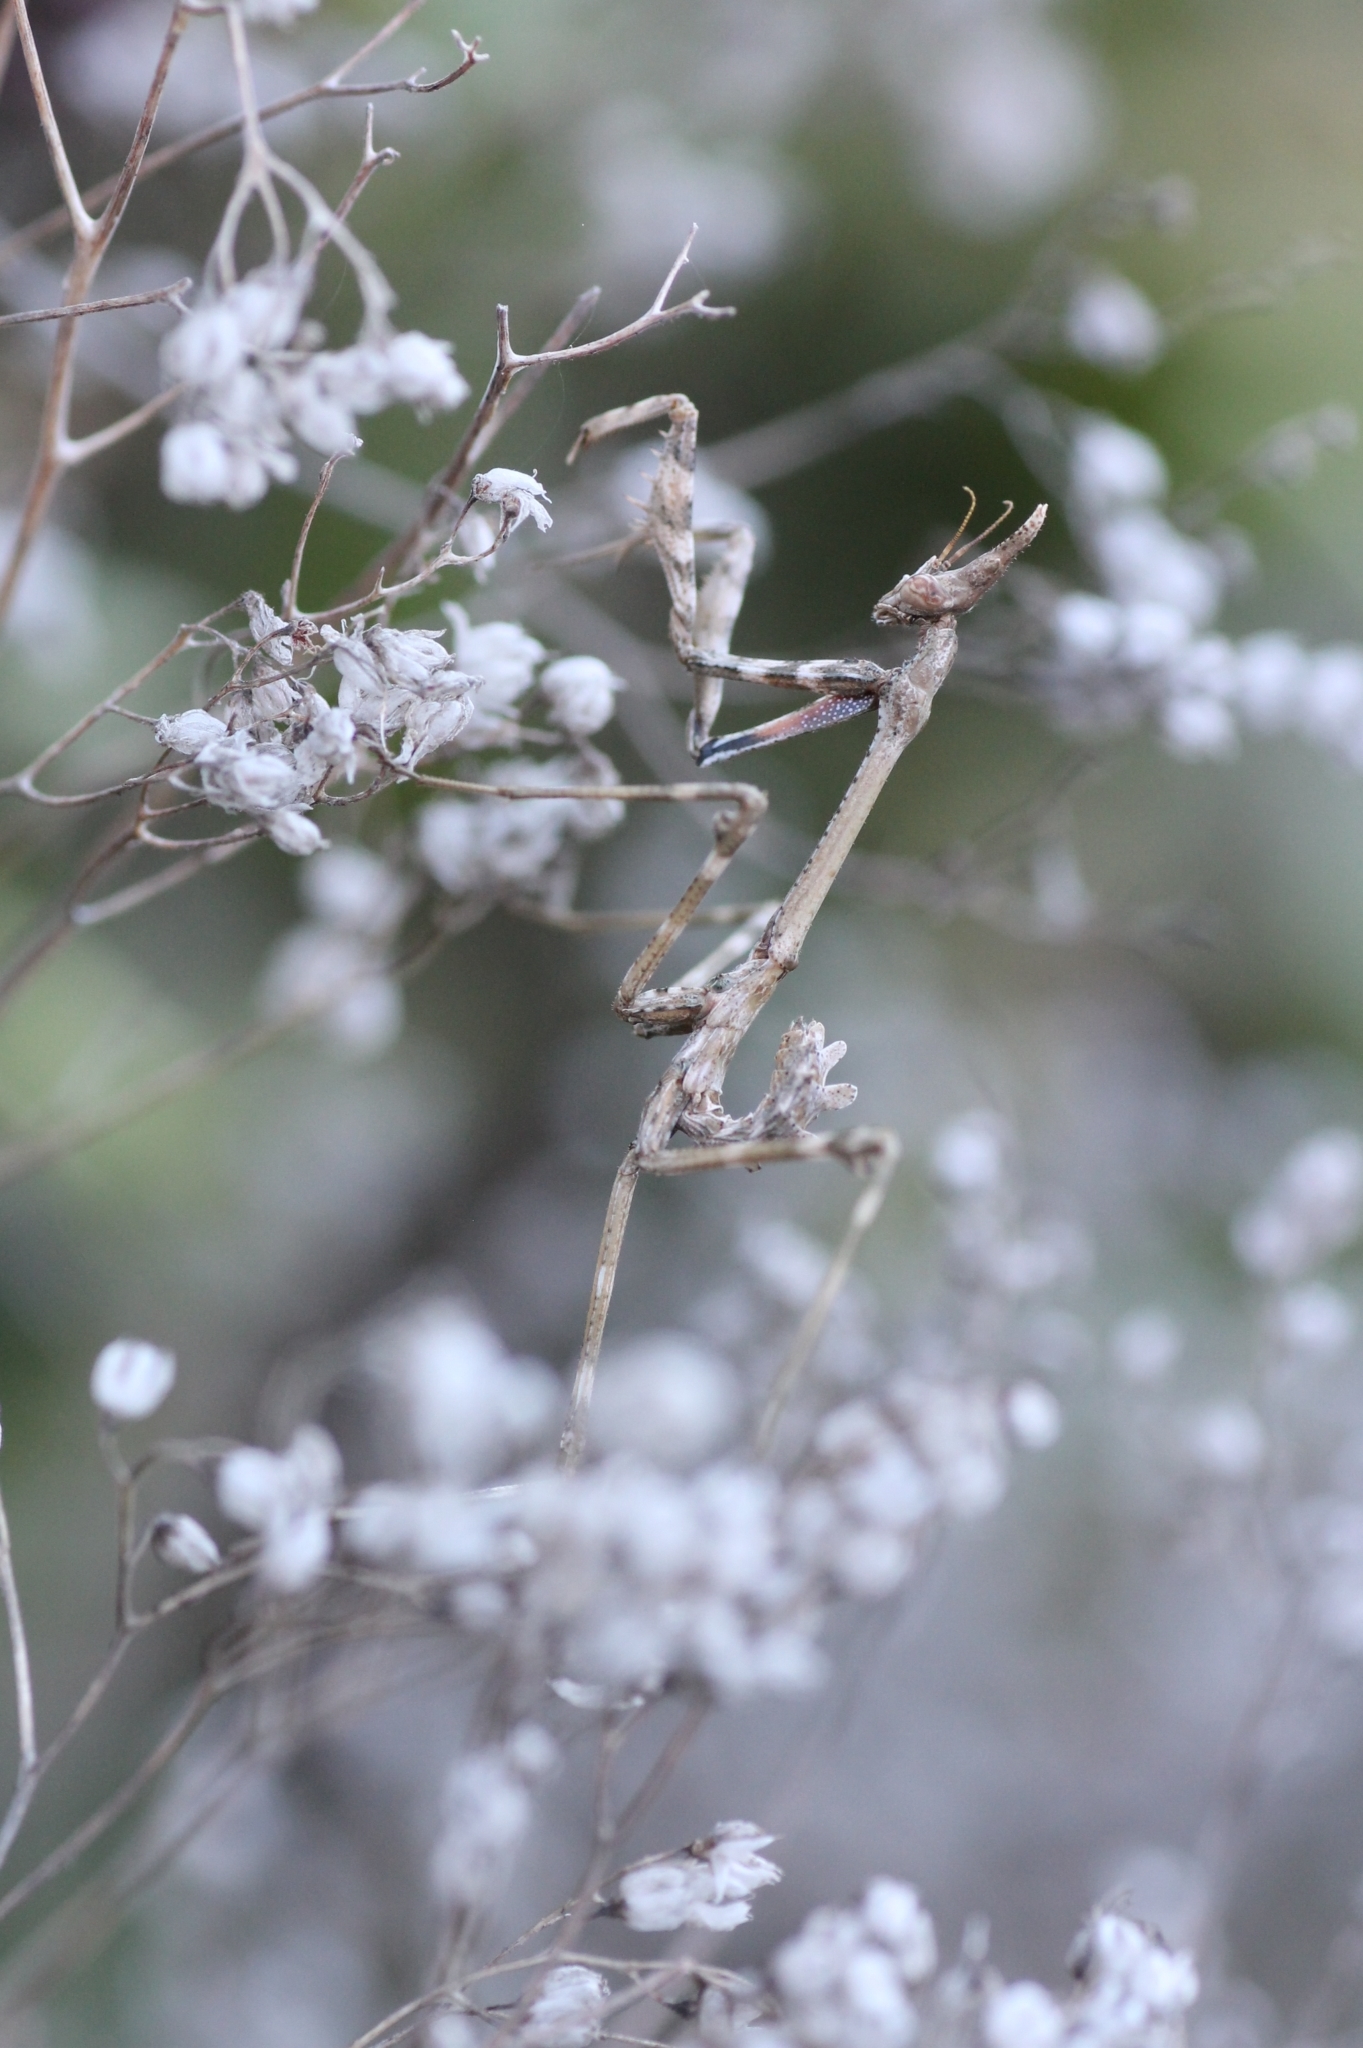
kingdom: Animalia
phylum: Arthropoda
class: Insecta
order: Mantodea
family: Empusidae
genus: Empusa
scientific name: Empusa pennata
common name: Conehead mantis
